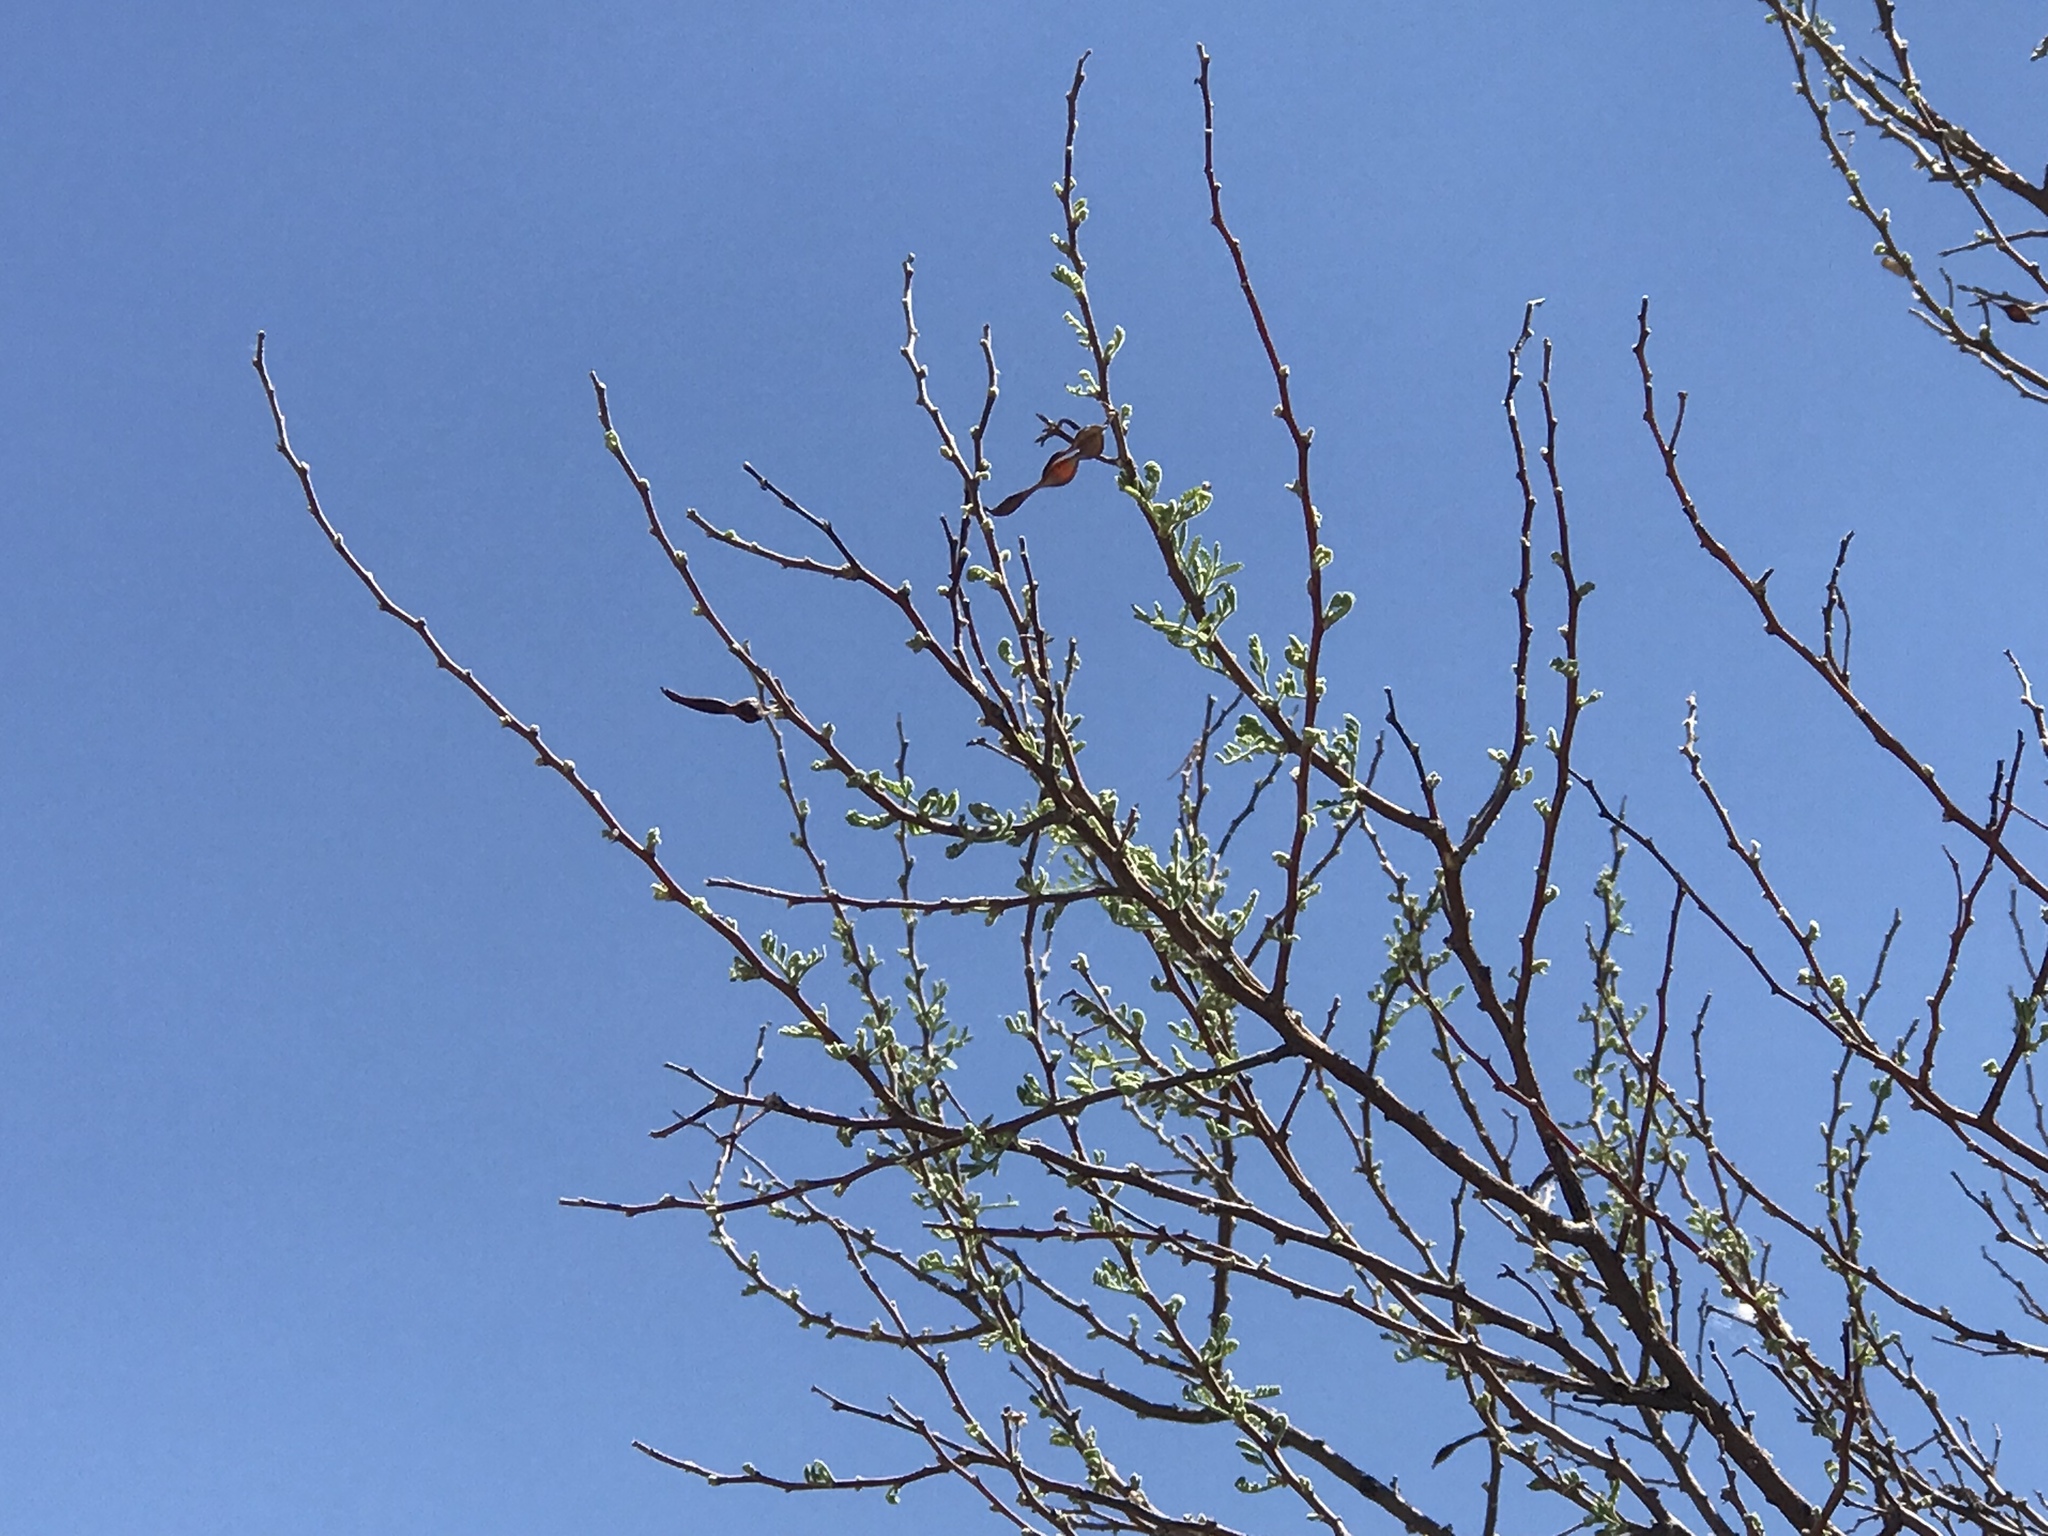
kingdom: Plantae
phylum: Tracheophyta
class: Magnoliopsida
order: Fabales
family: Fabaceae
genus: Senegalia
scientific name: Senegalia greggii
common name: Texas-mimosa
